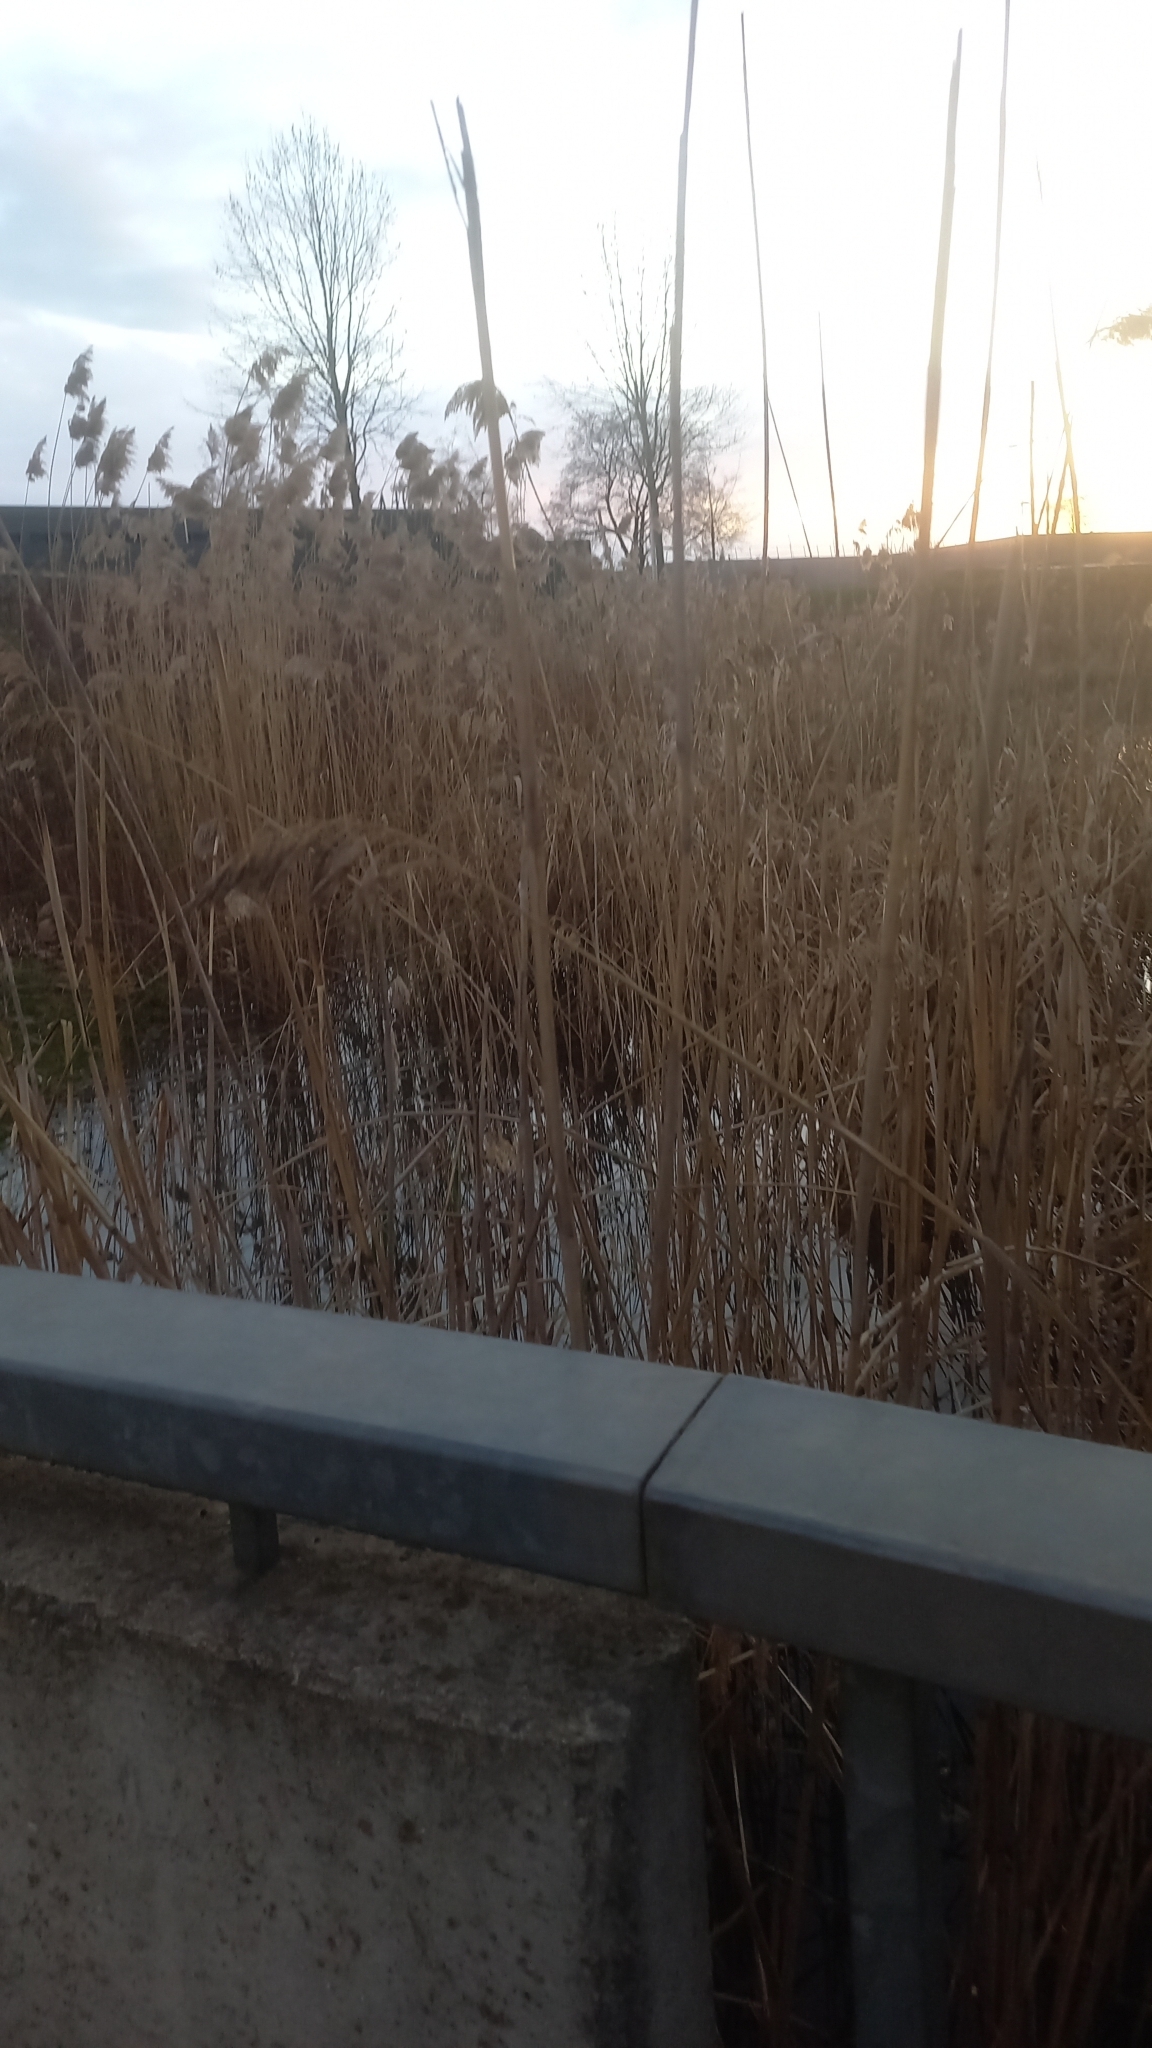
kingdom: Plantae
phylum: Tracheophyta
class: Liliopsida
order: Poales
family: Poaceae
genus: Phragmites
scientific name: Phragmites australis
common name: Common reed
